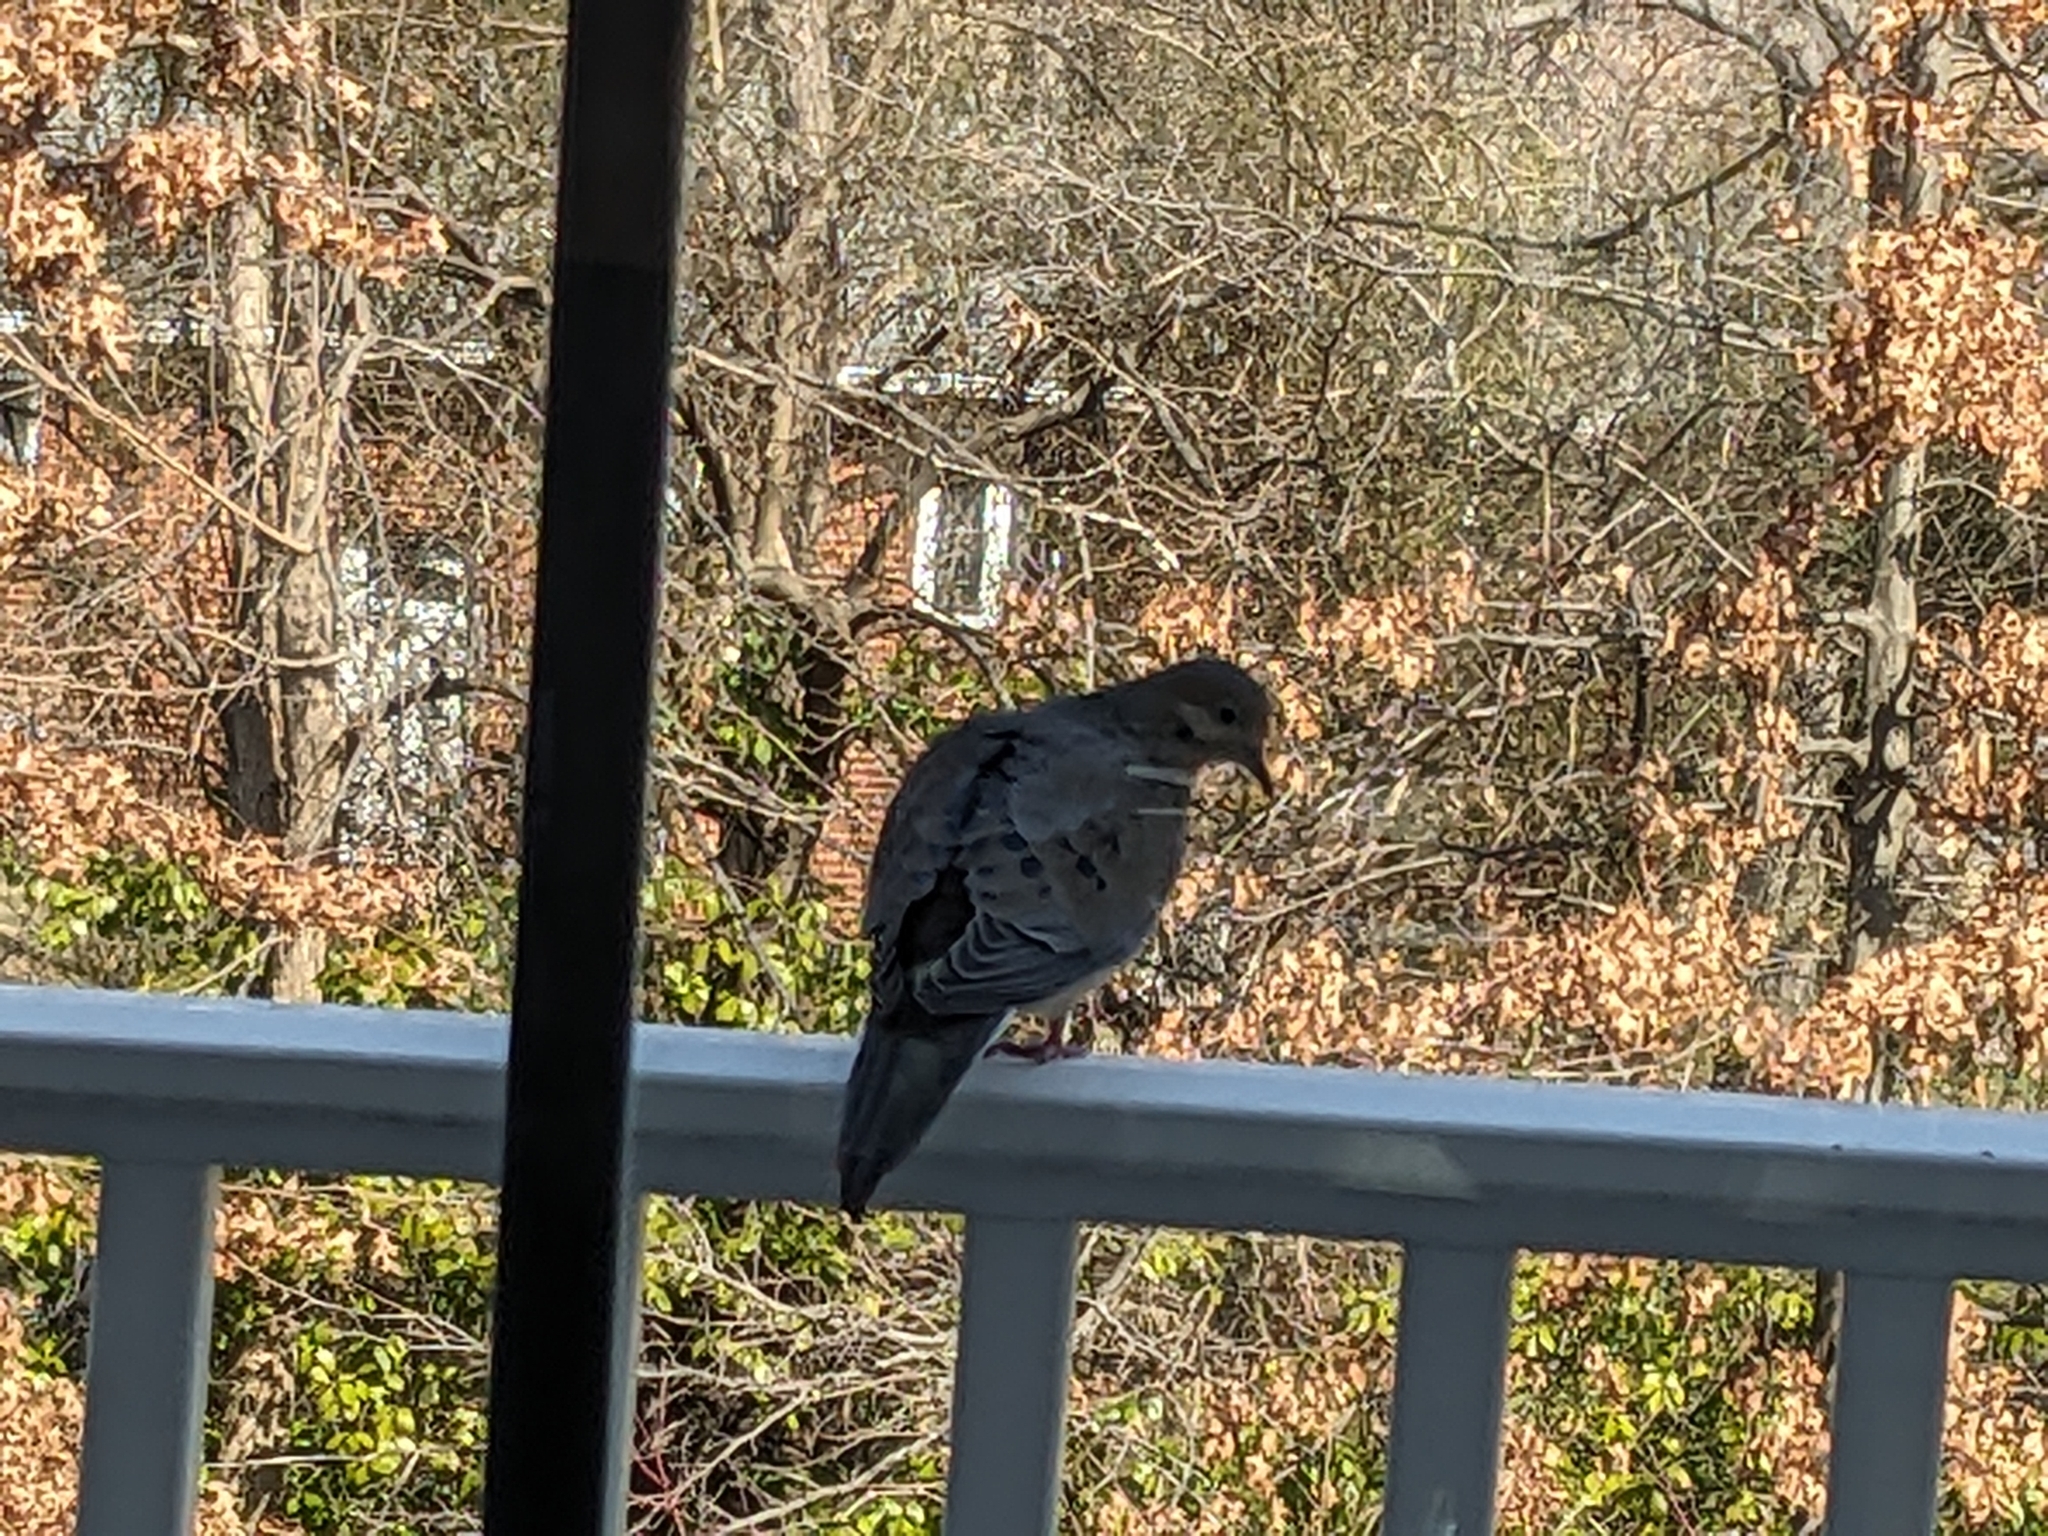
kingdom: Animalia
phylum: Chordata
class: Aves
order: Columbiformes
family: Columbidae
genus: Zenaida
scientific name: Zenaida macroura
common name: Mourning dove
